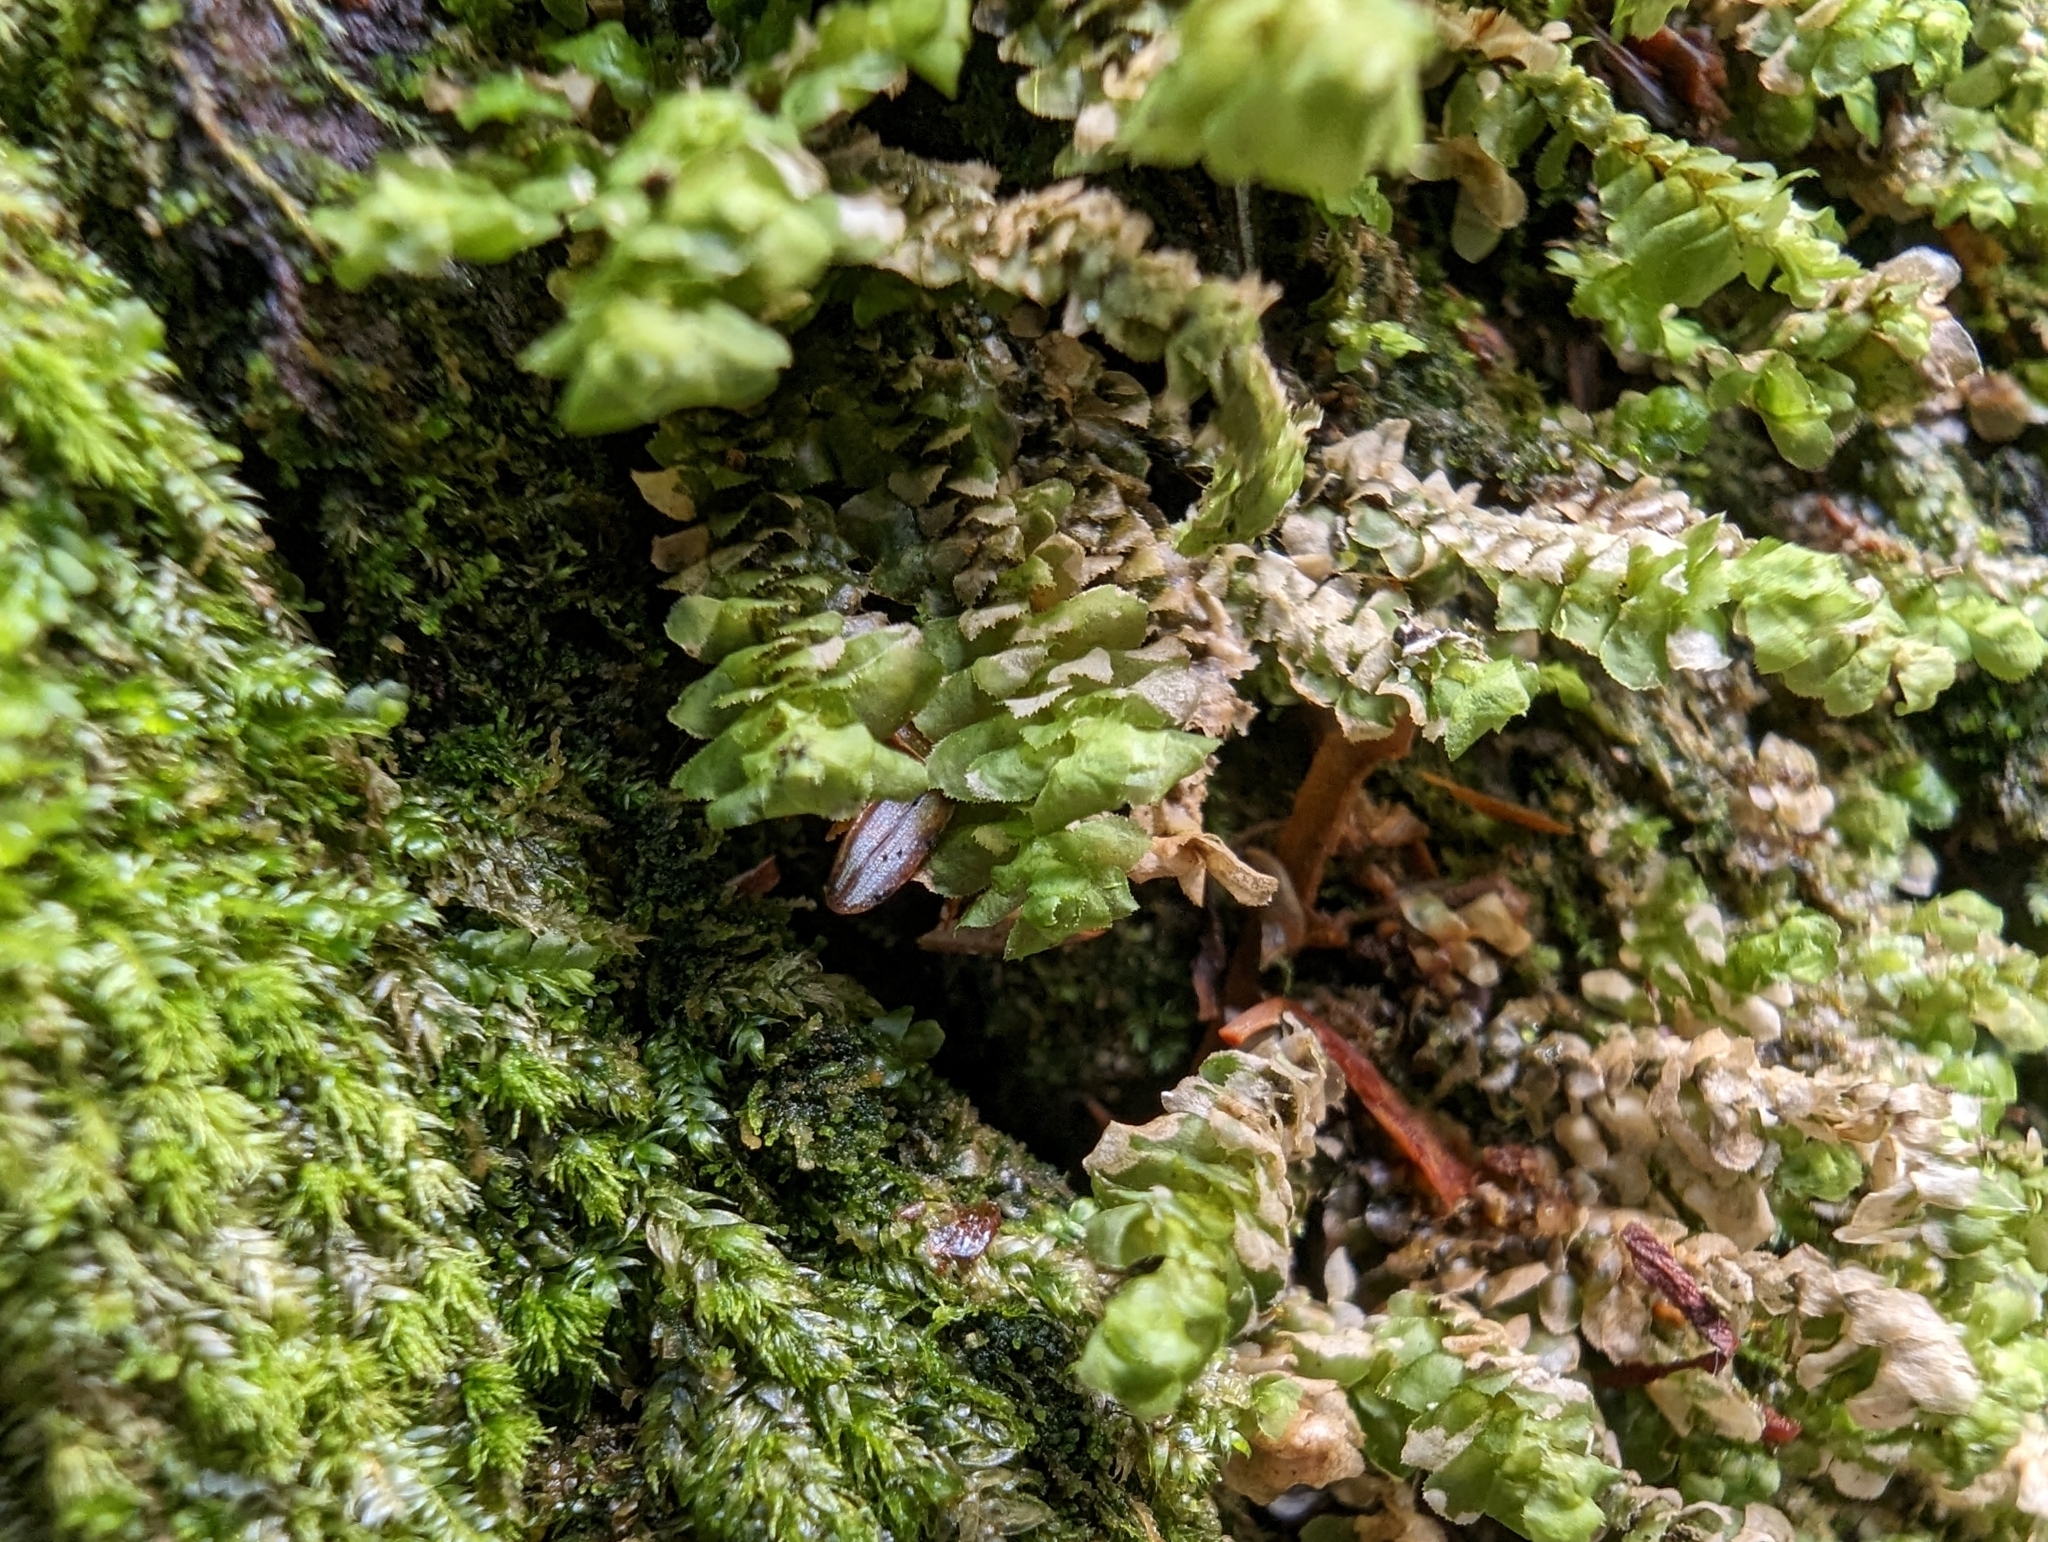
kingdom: Plantae
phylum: Marchantiophyta
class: Jungermanniopsida
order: Jungermanniales
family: Scapaniaceae
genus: Scapania
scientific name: Scapania bolanderi
